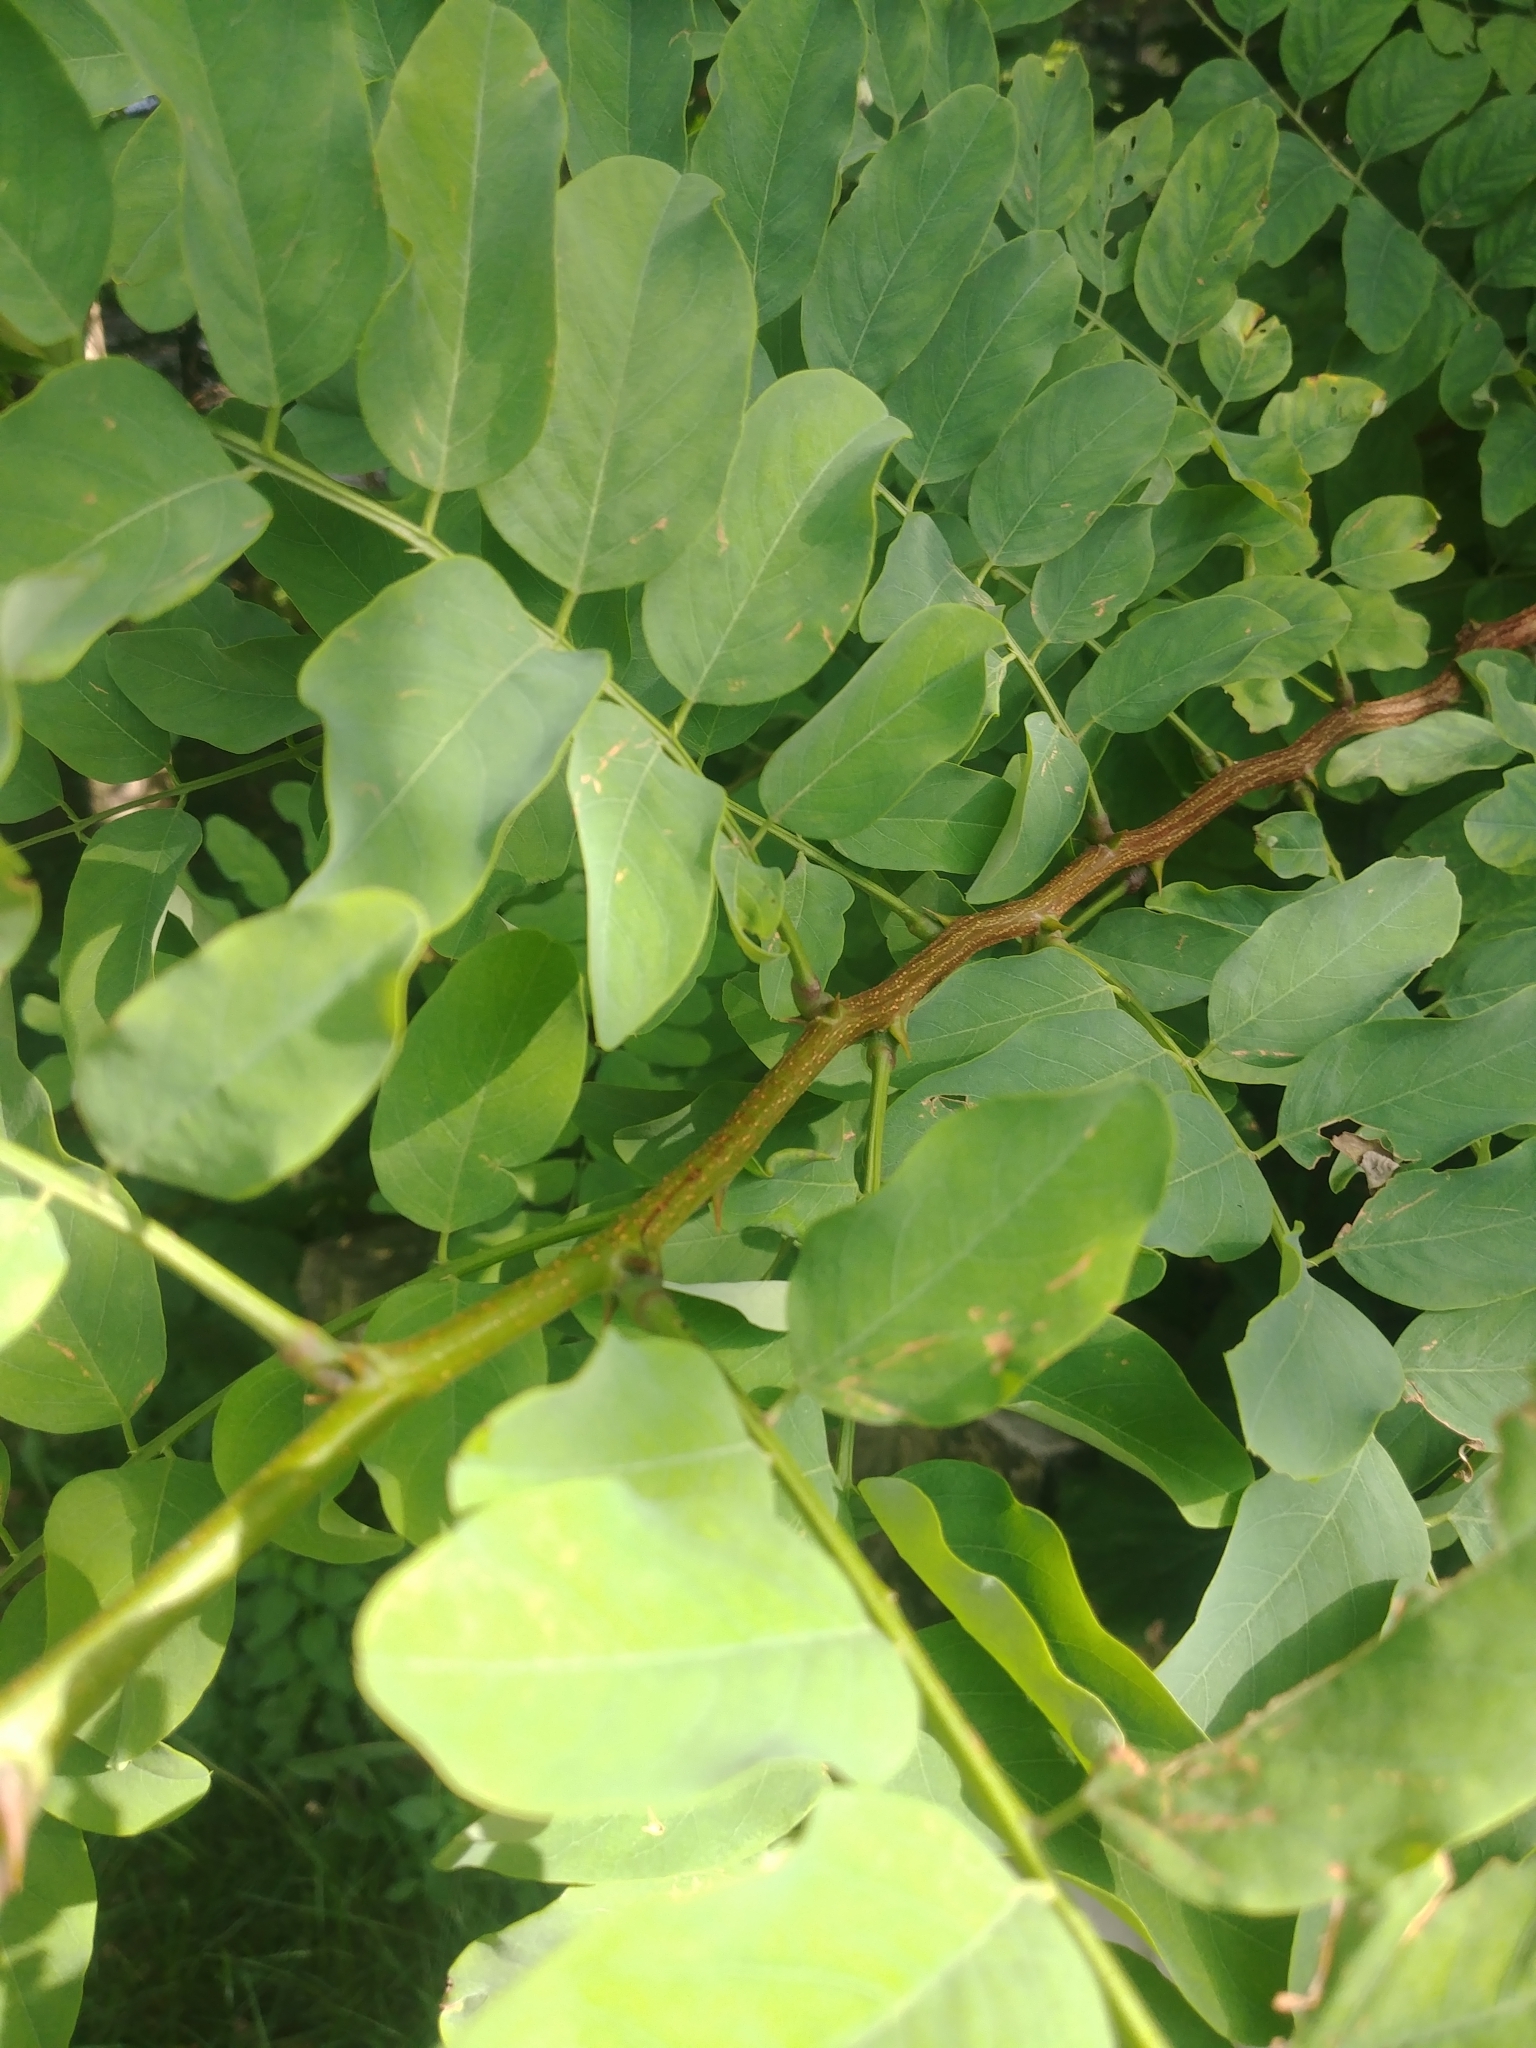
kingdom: Plantae
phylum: Tracheophyta
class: Magnoliopsida
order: Fabales
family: Fabaceae
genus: Robinia
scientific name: Robinia pseudoacacia
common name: Black locust
